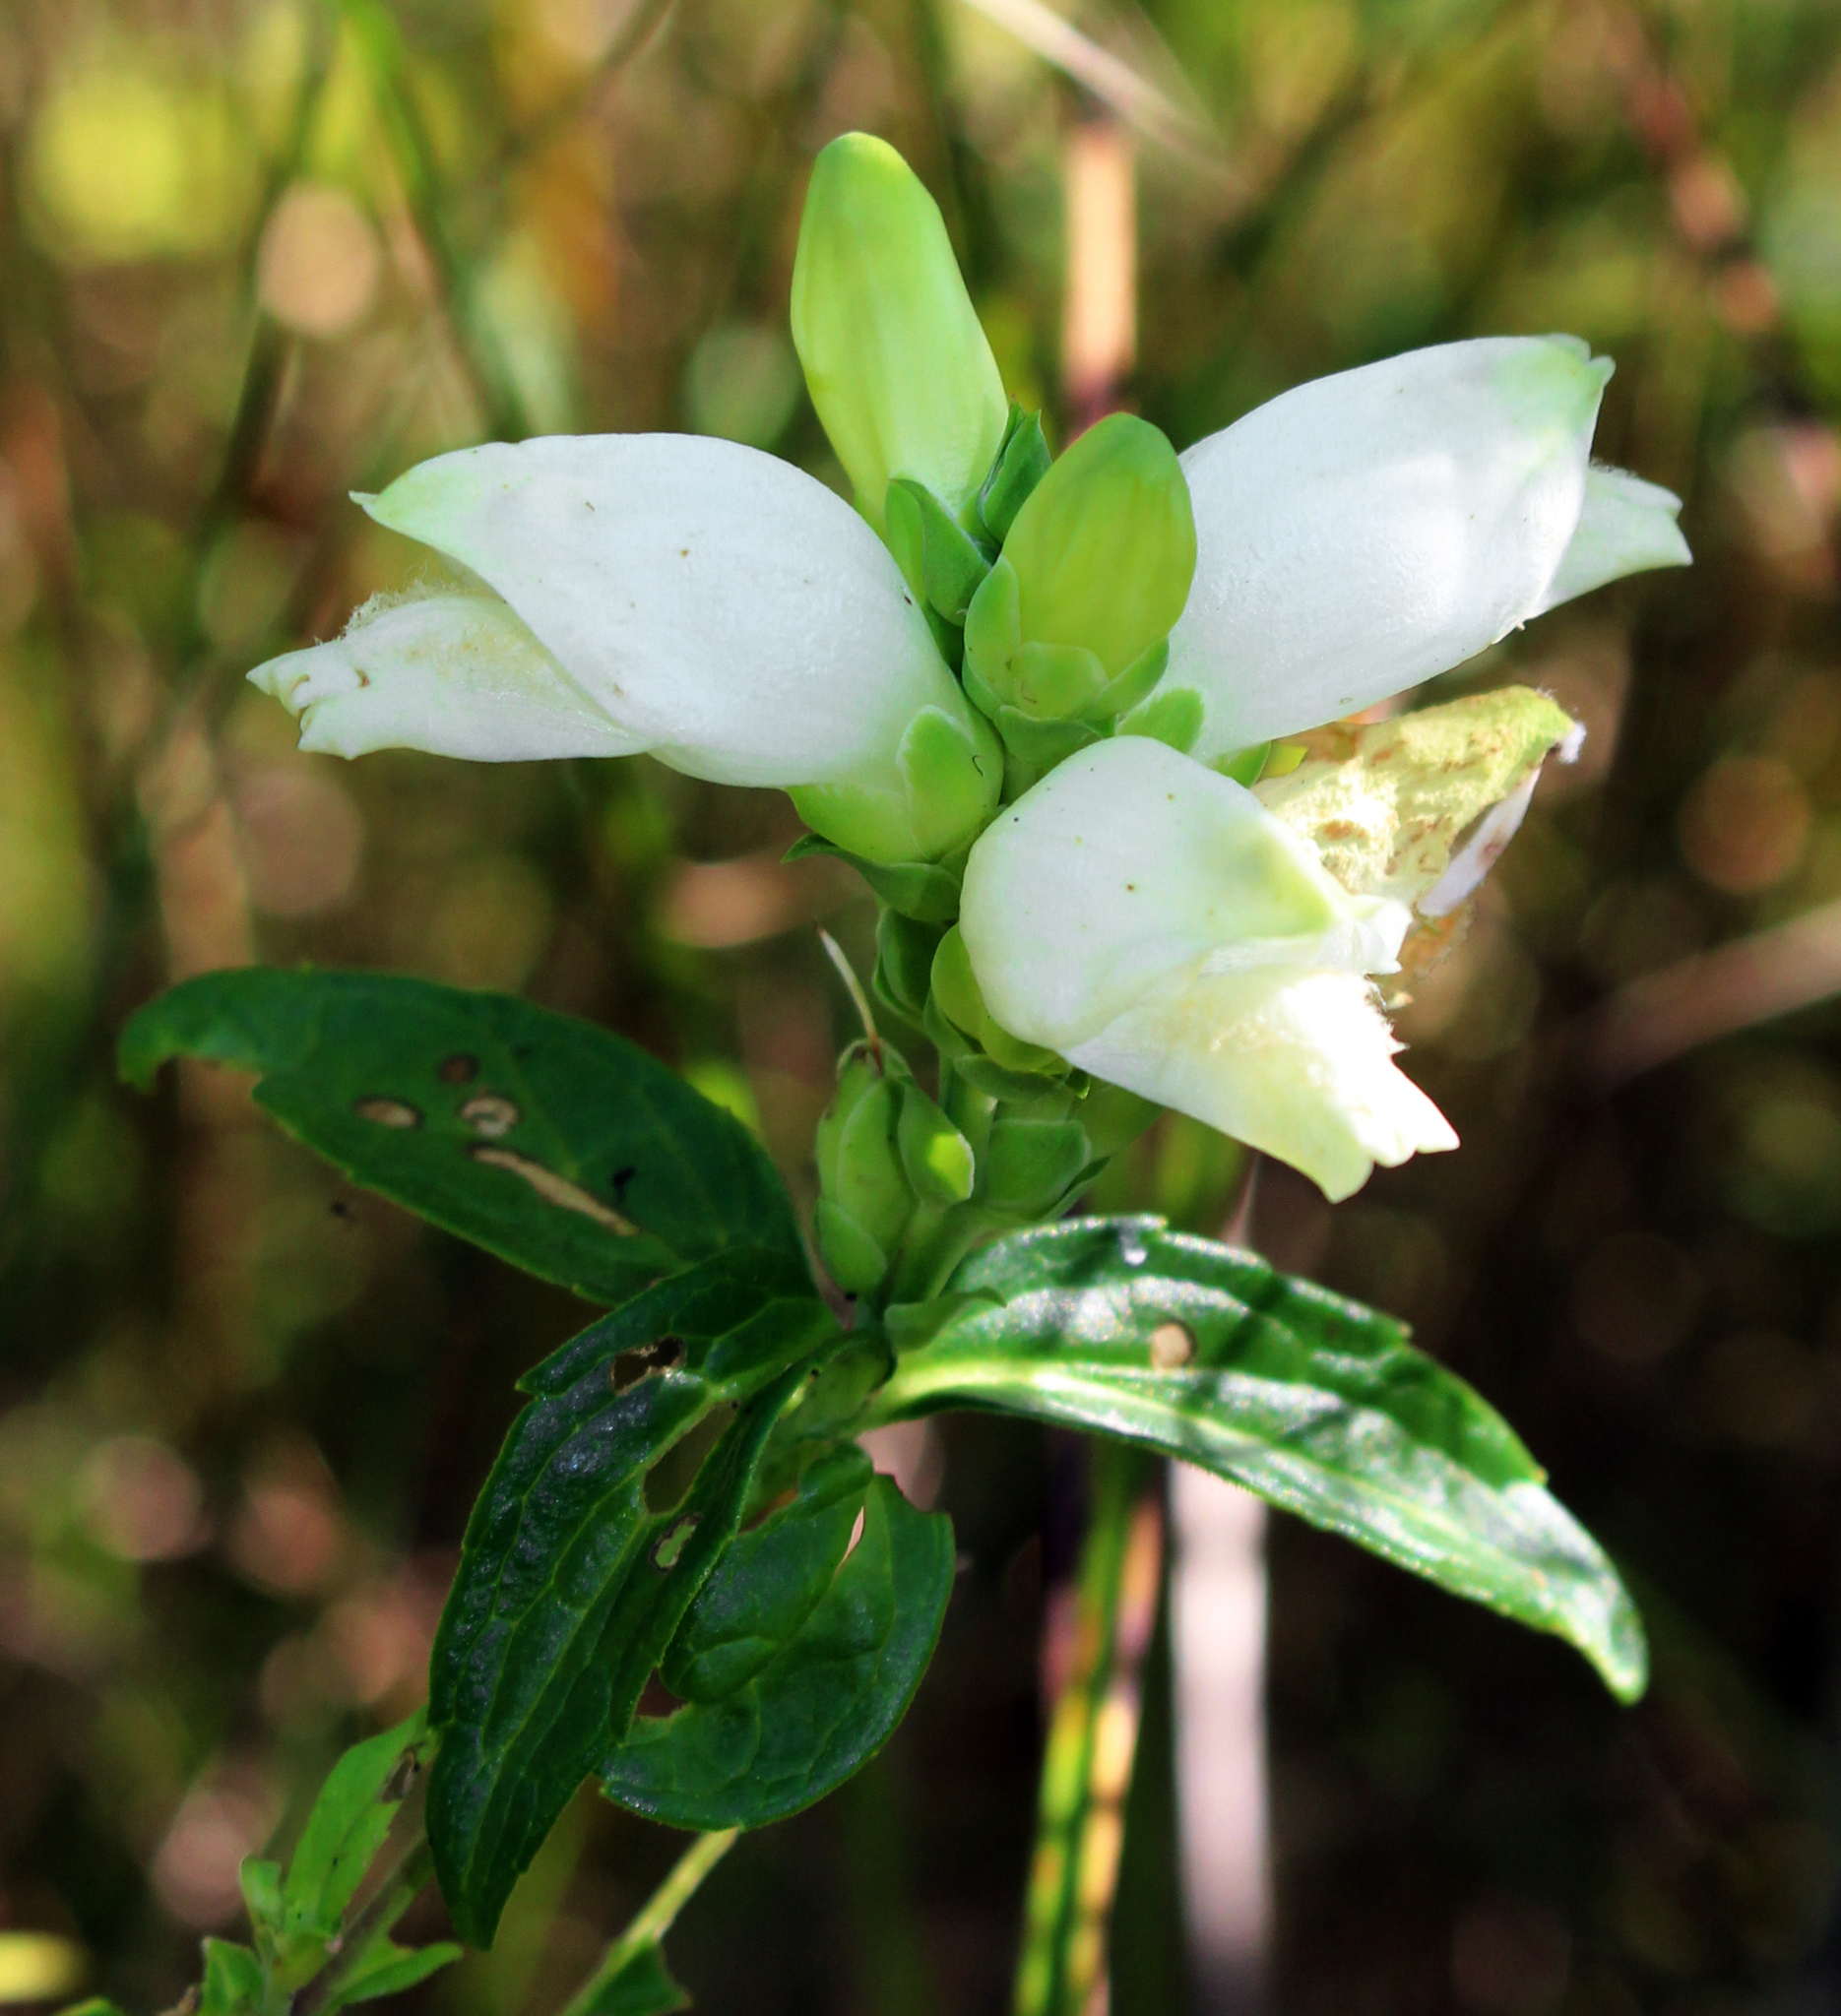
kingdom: Plantae
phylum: Tracheophyta
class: Magnoliopsida
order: Lamiales
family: Plantaginaceae
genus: Chelone
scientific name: Chelone glabra
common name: Snakehead
